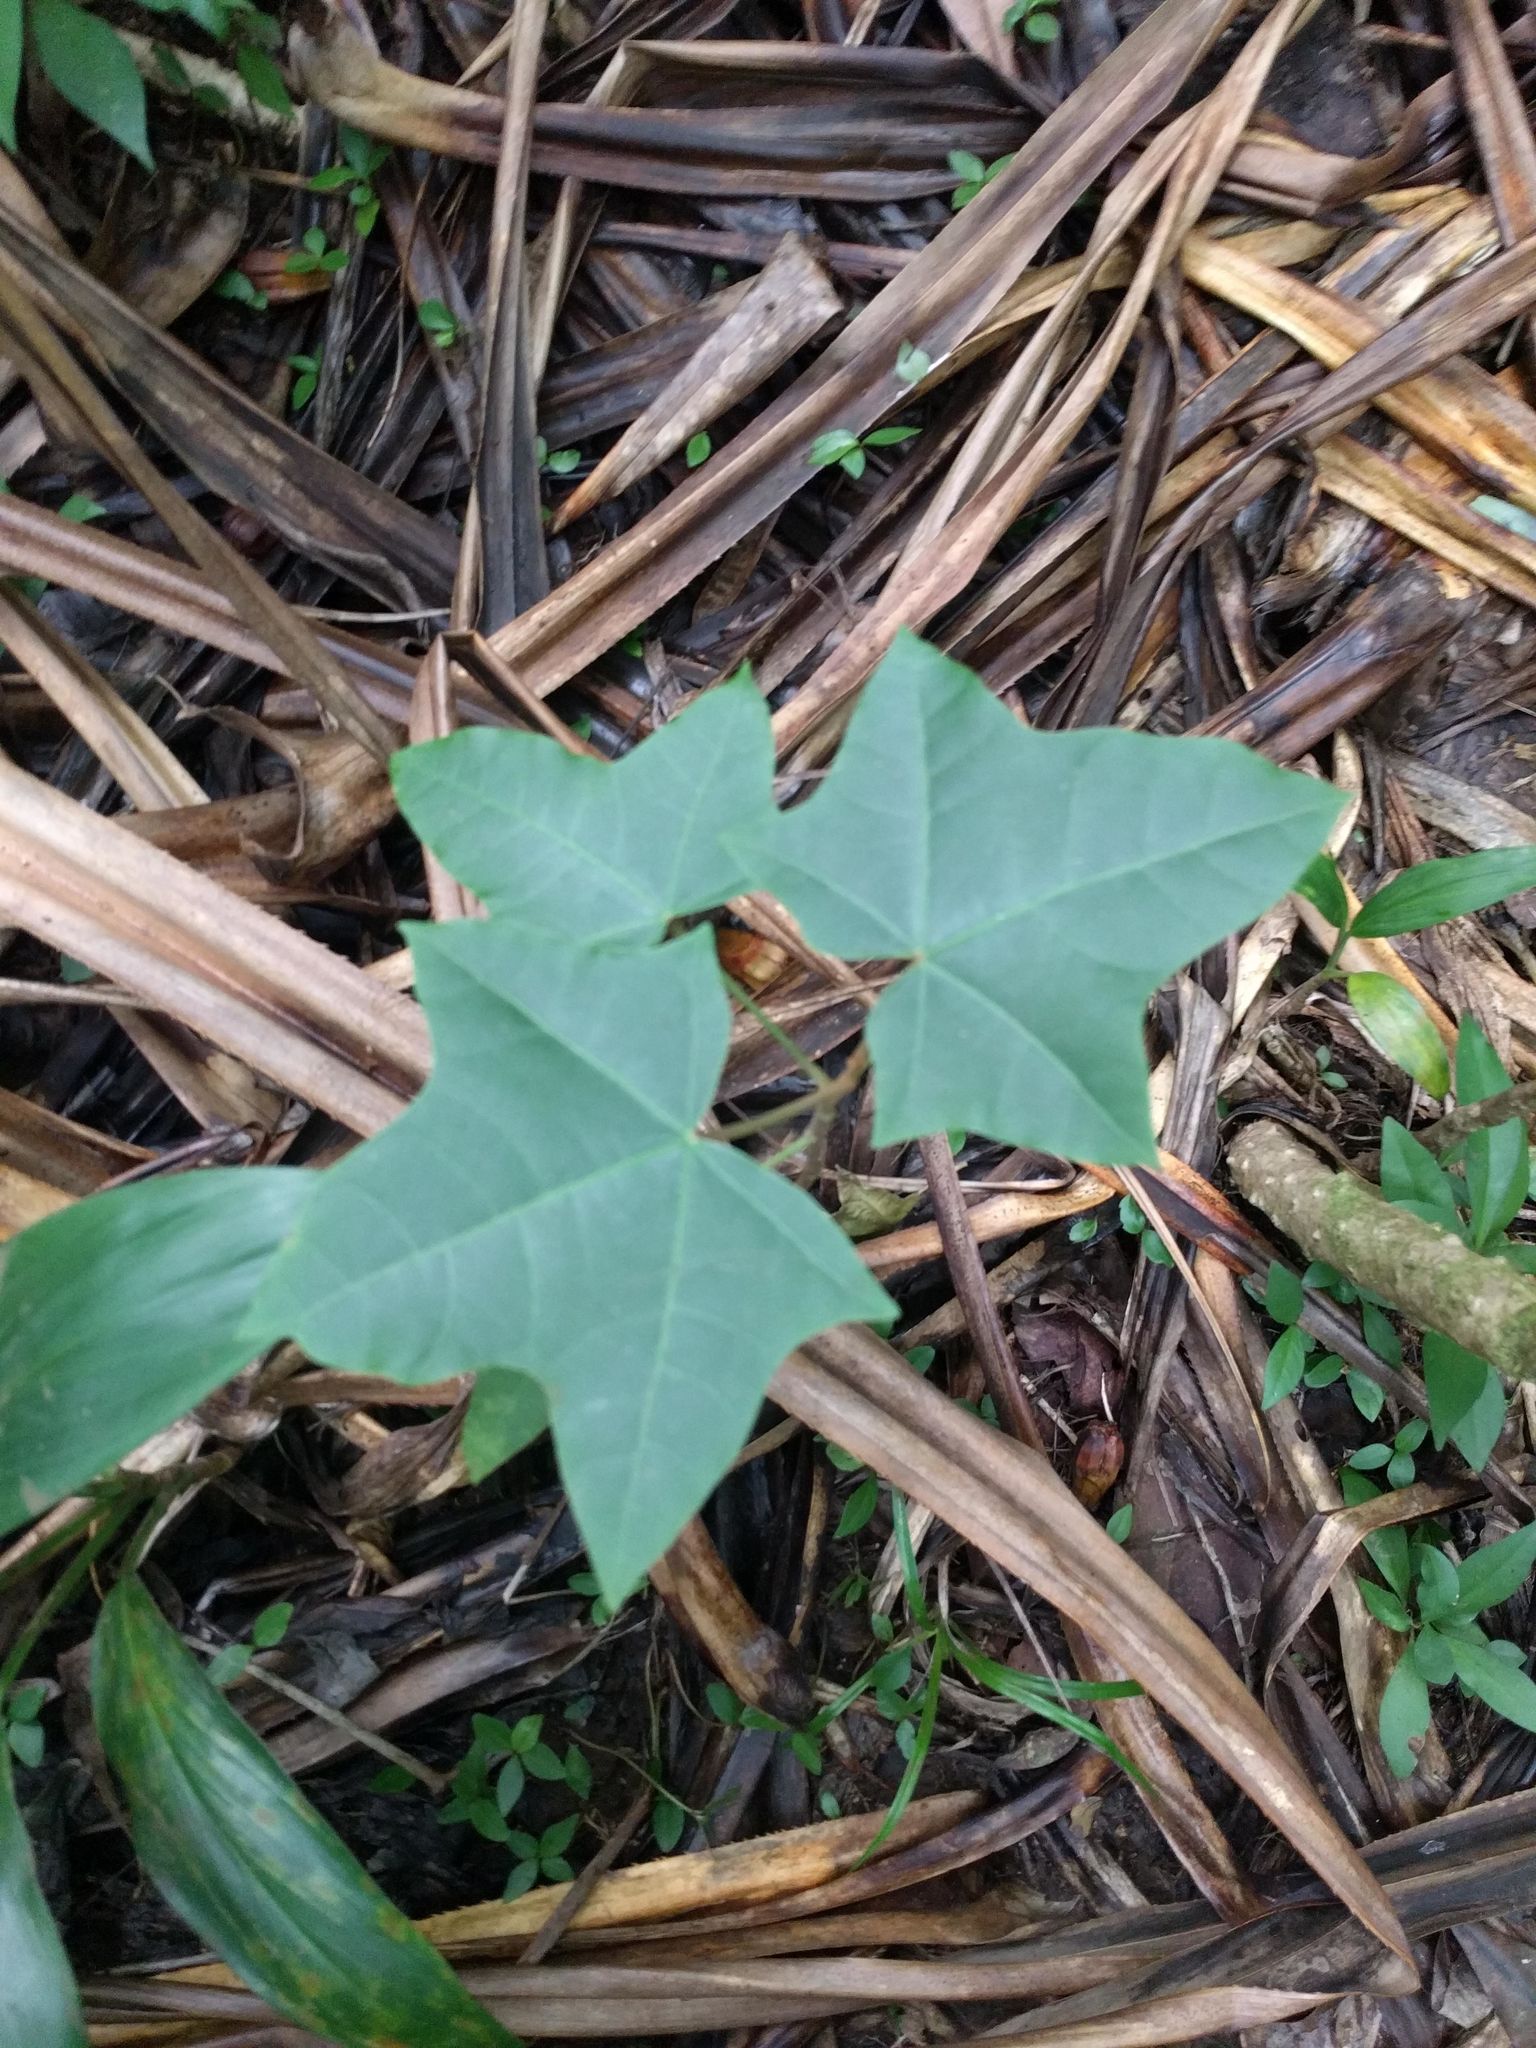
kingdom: Plantae
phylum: Tracheophyta
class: Magnoliopsida
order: Malpighiales
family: Euphorbiaceae
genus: Aleurites
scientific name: Aleurites moluccanus
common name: Candlenut tree
